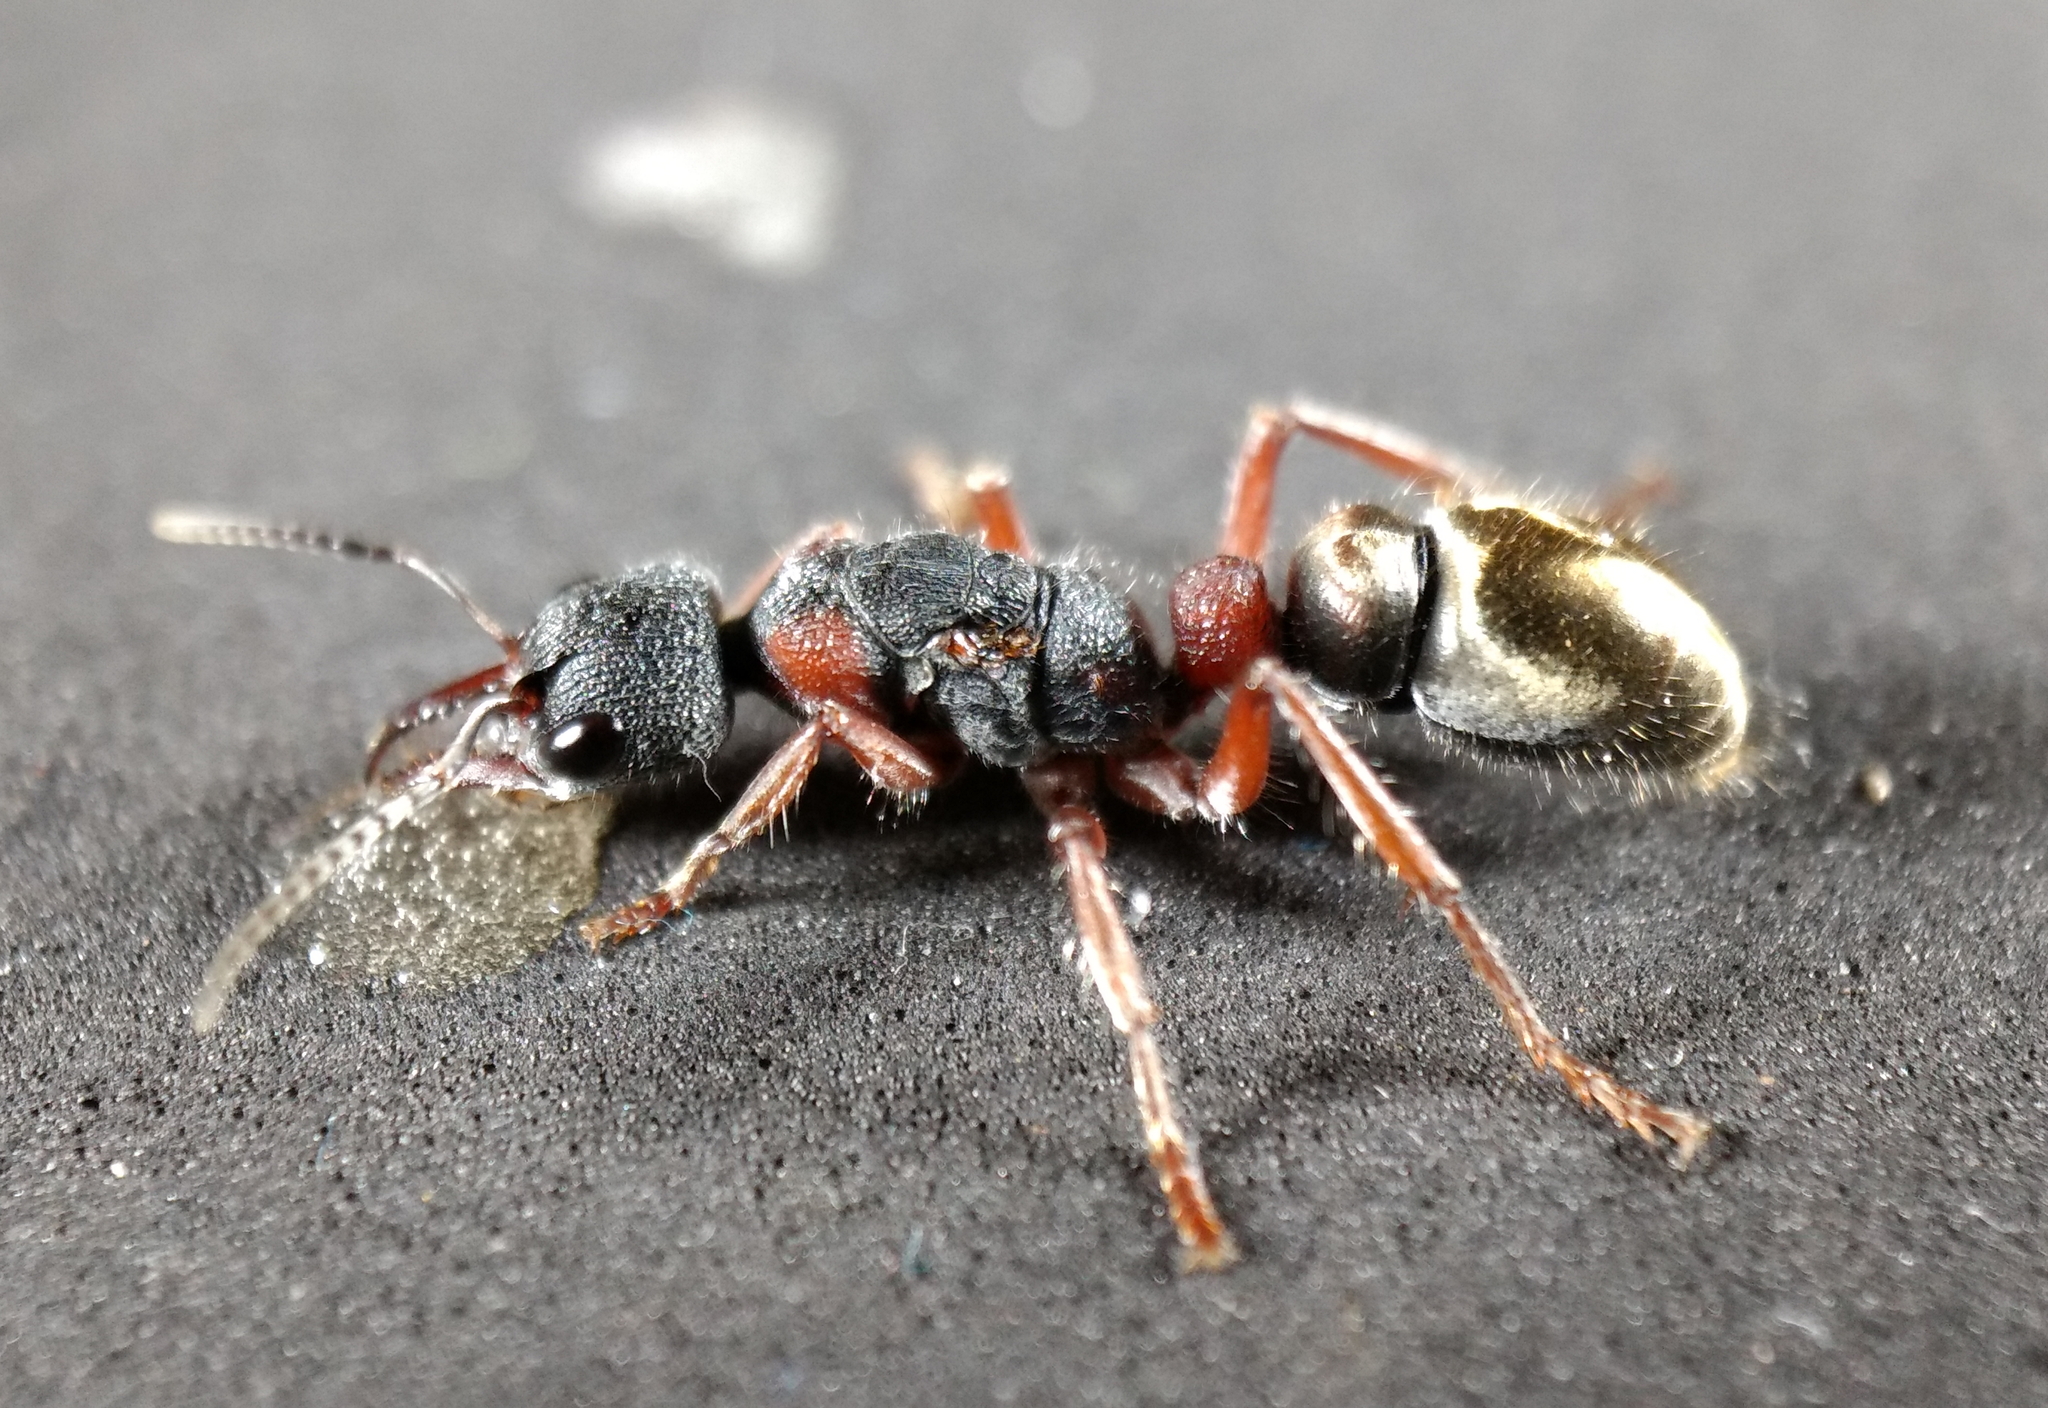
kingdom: Animalia
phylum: Arthropoda
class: Insecta
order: Hymenoptera
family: Formicidae
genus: Myrmecia
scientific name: Myrmecia chrysogaster
